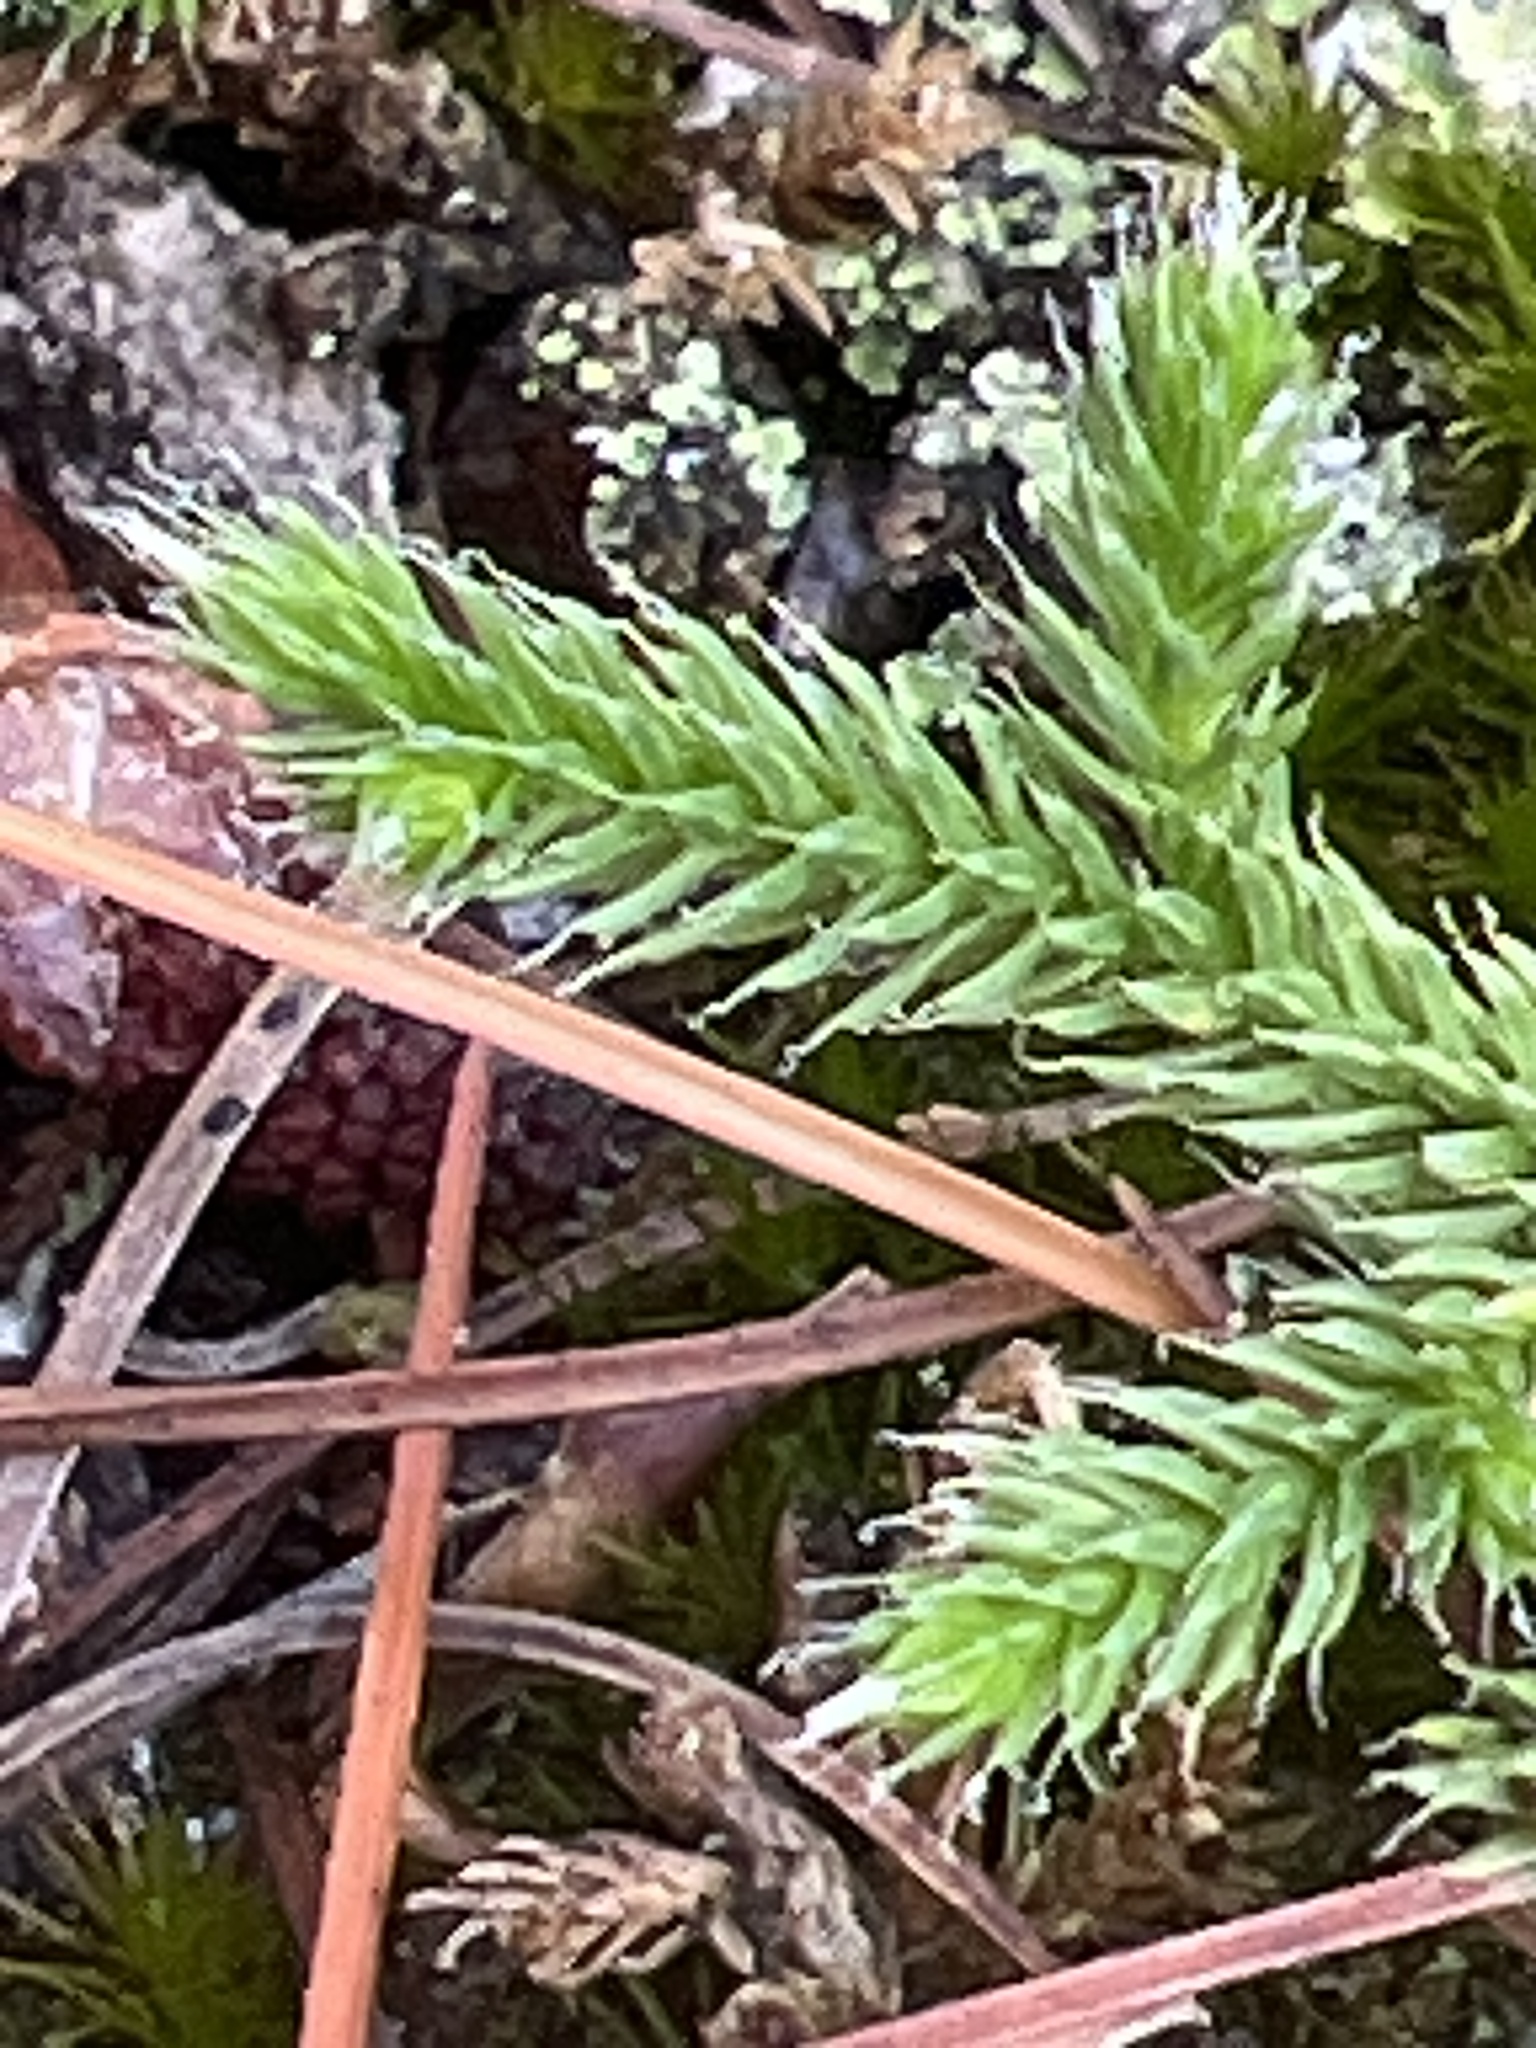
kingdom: Plantae
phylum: Tracheophyta
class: Lycopodiopsida
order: Selaginellales
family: Selaginellaceae
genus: Selaginella
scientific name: Selaginella tortipila
